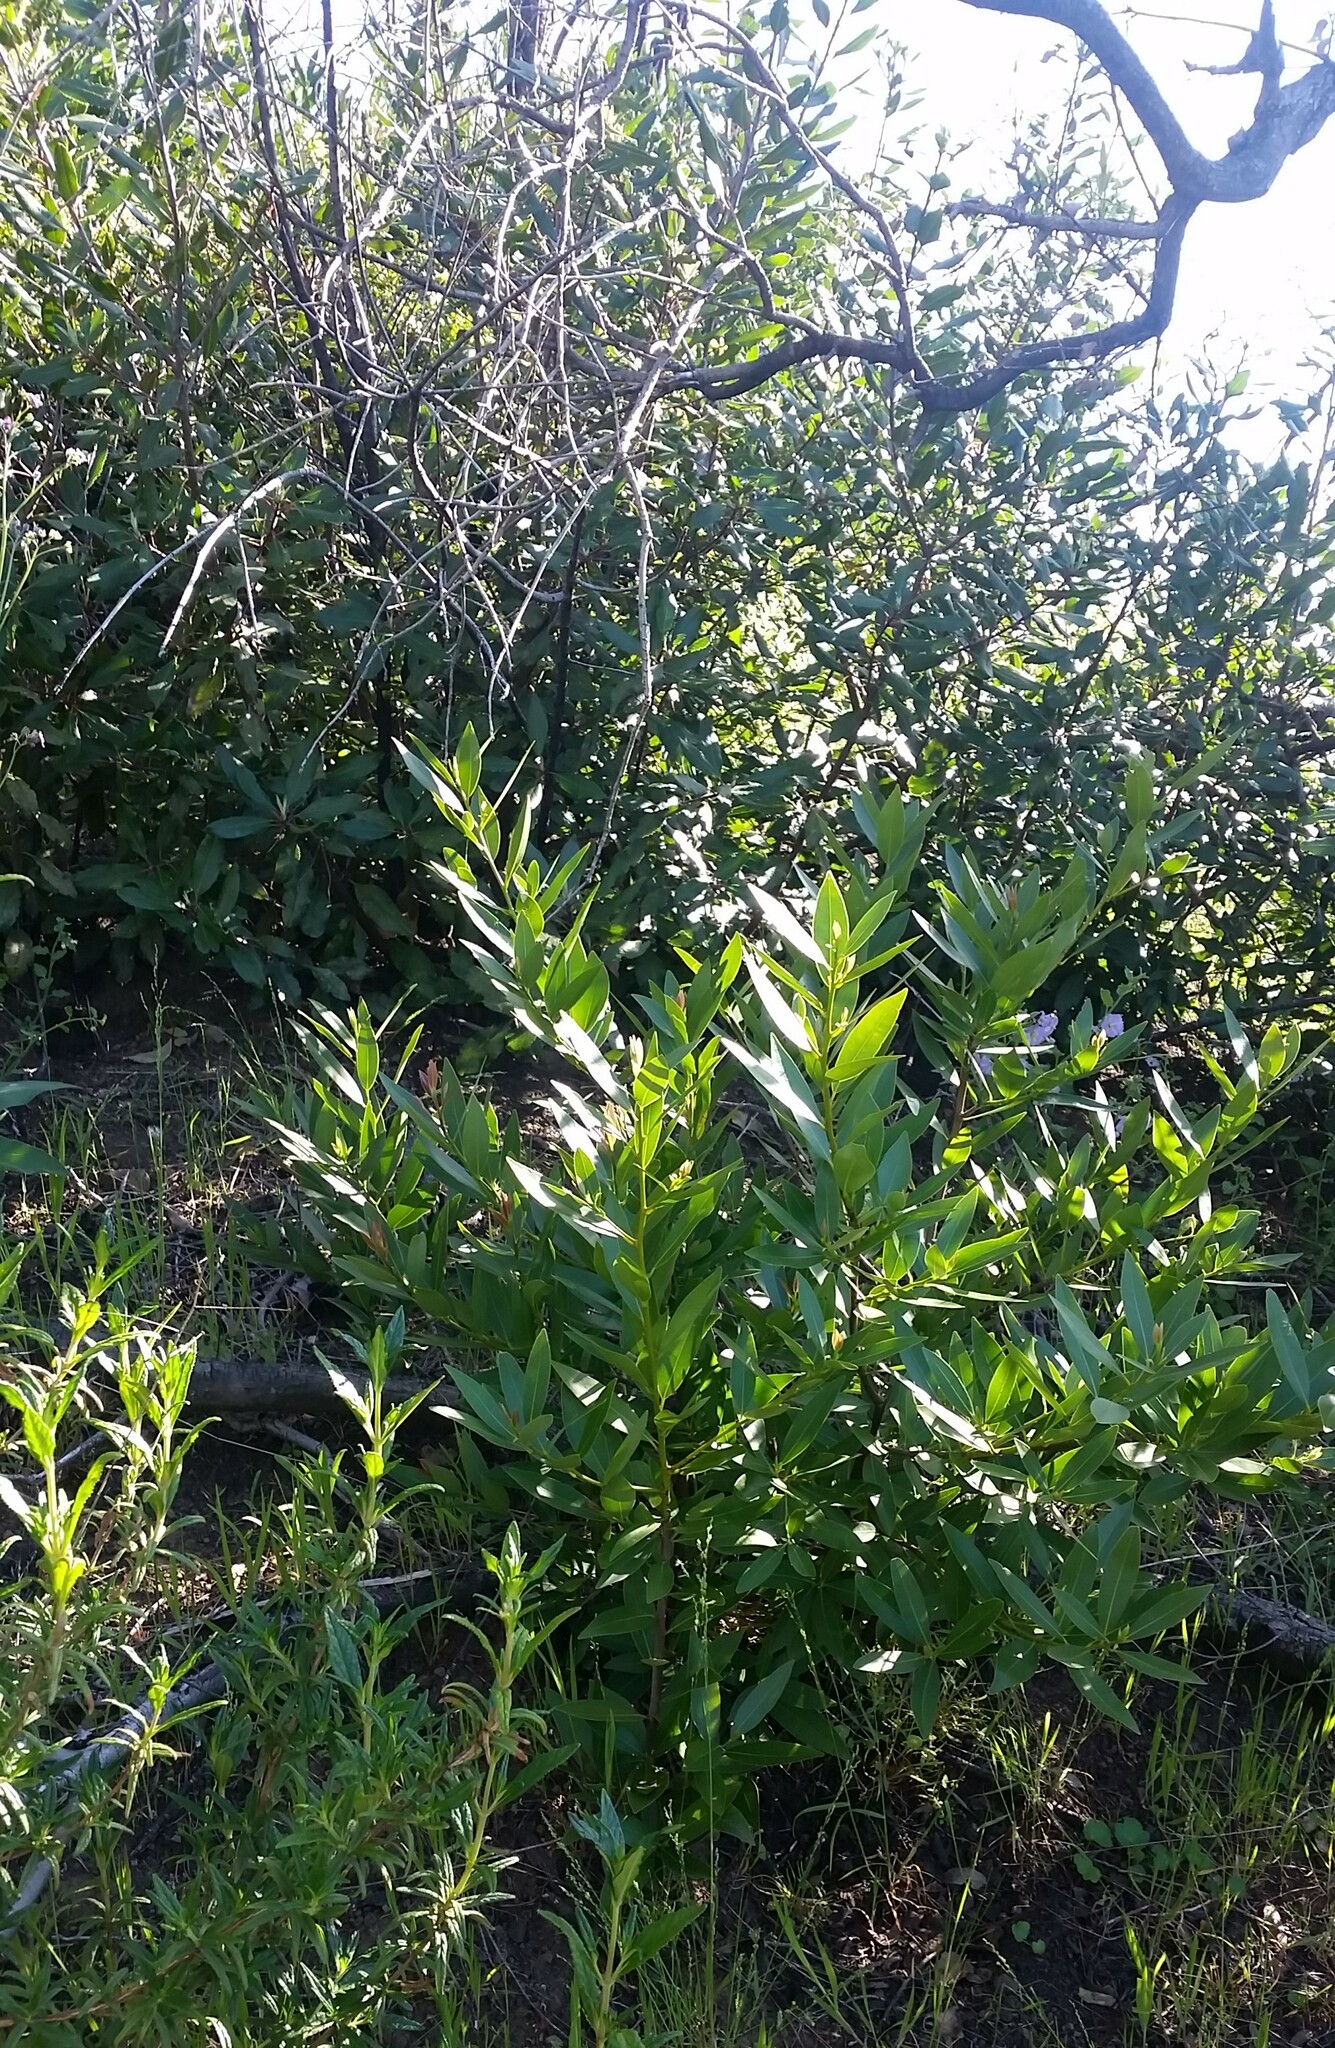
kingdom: Plantae
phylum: Tracheophyta
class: Magnoliopsida
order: Laurales
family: Lauraceae
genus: Umbellularia
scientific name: Umbellularia californica
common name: California bay
